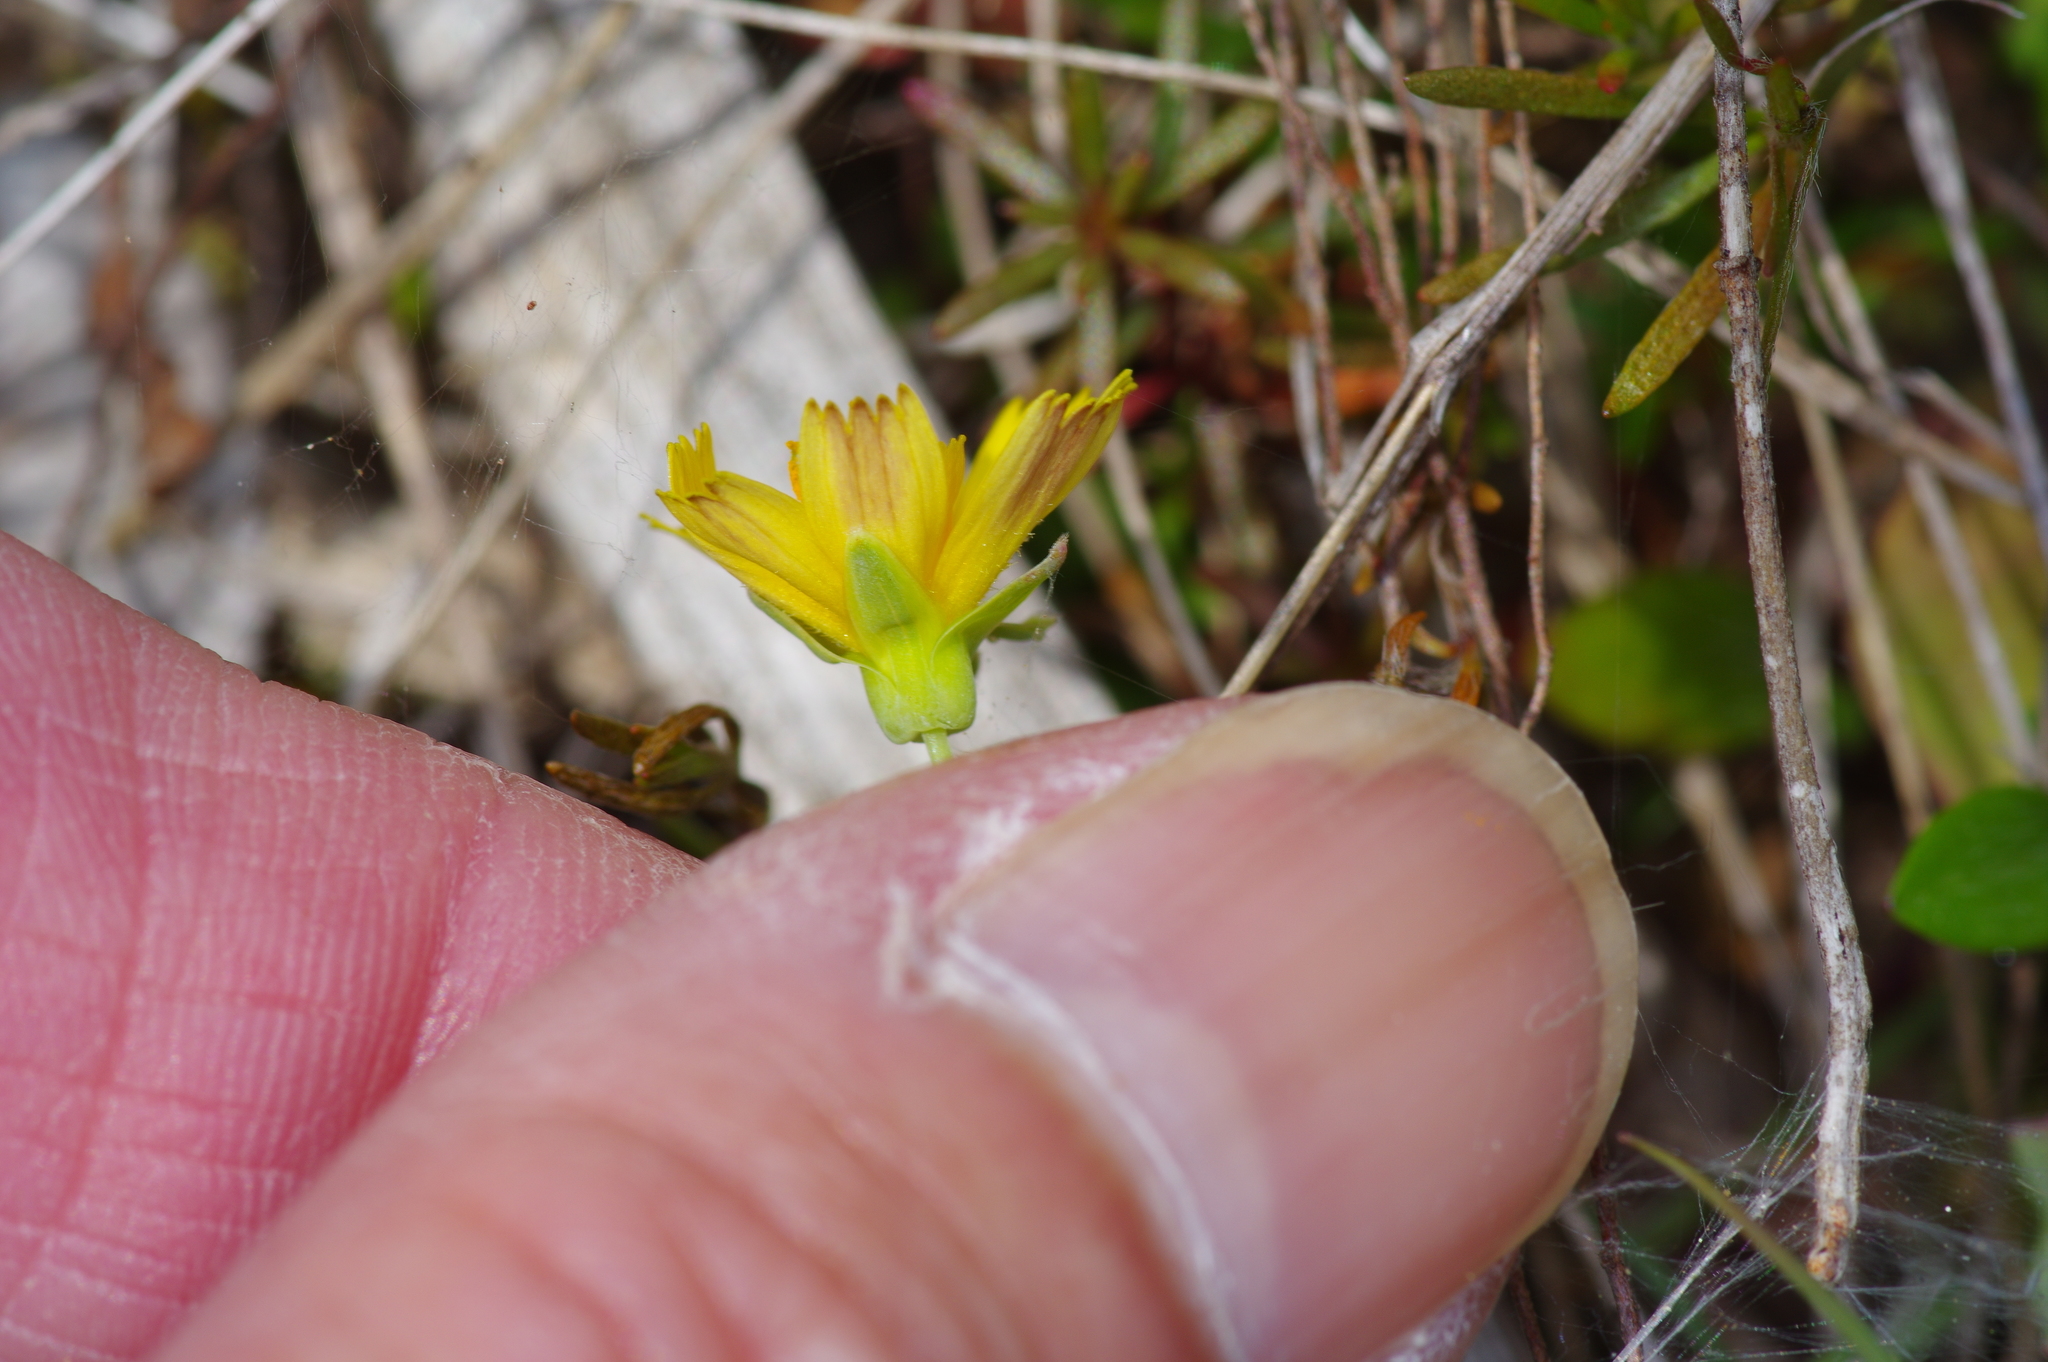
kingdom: Plantae
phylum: Tracheophyta
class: Magnoliopsida
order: Asterales
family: Asteraceae
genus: Krigia
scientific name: Krigia occidentalis
